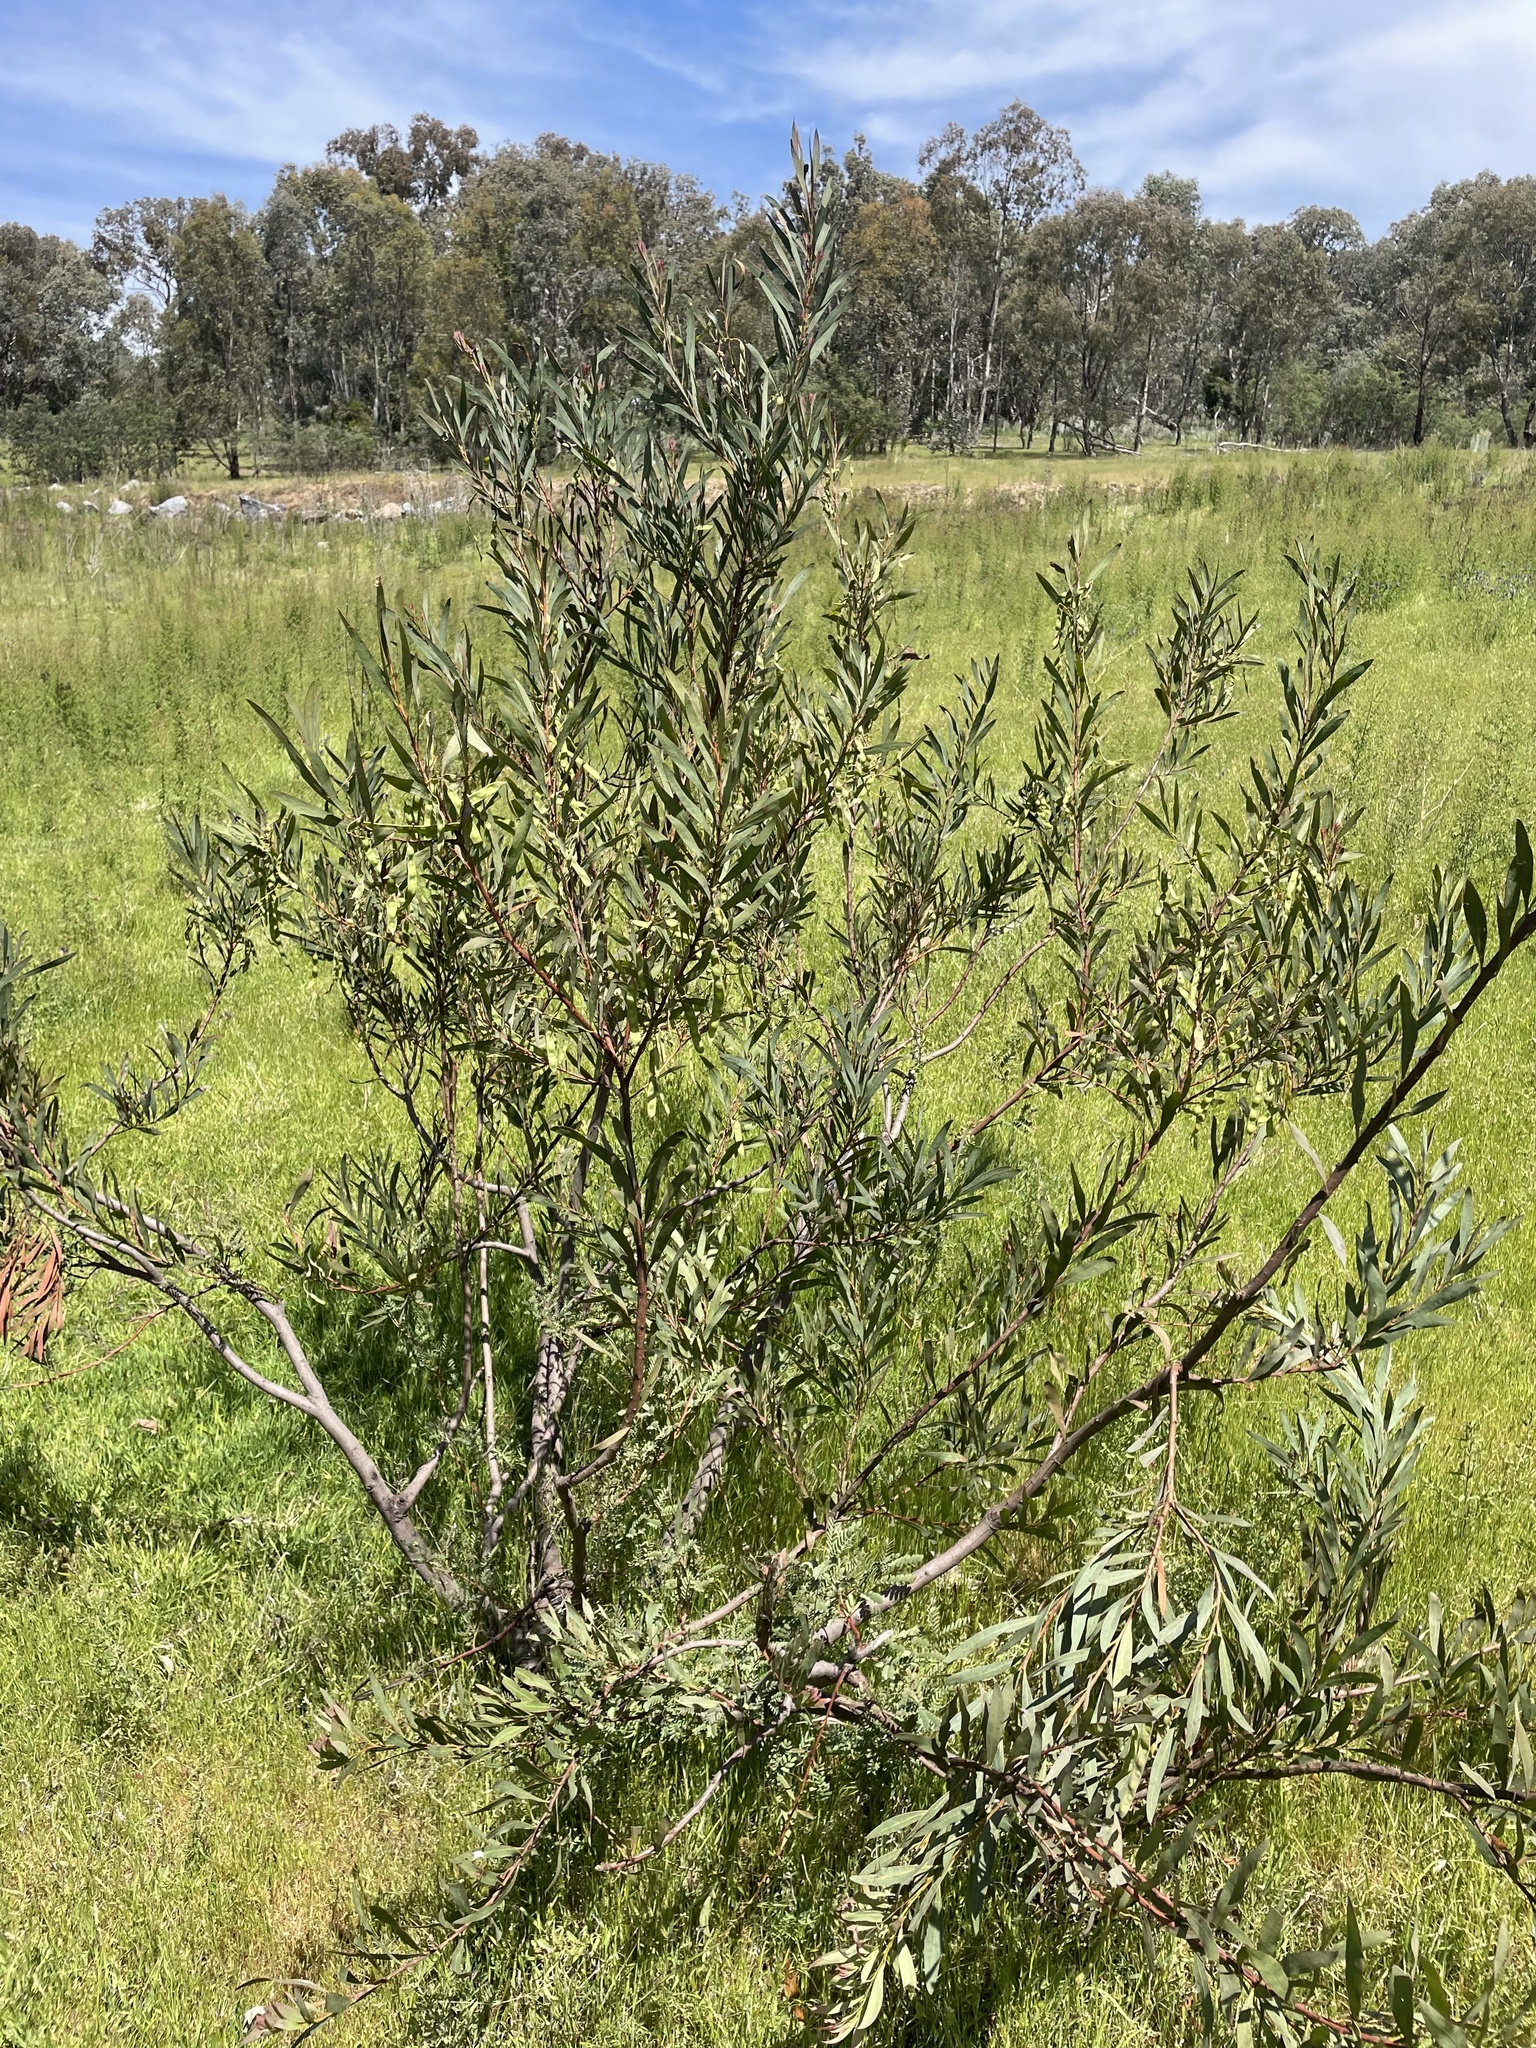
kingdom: Plantae
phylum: Tracheophyta
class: Magnoliopsida
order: Fabales
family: Fabaceae
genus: Acacia
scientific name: Acacia rubida
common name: Red leaf wattle
